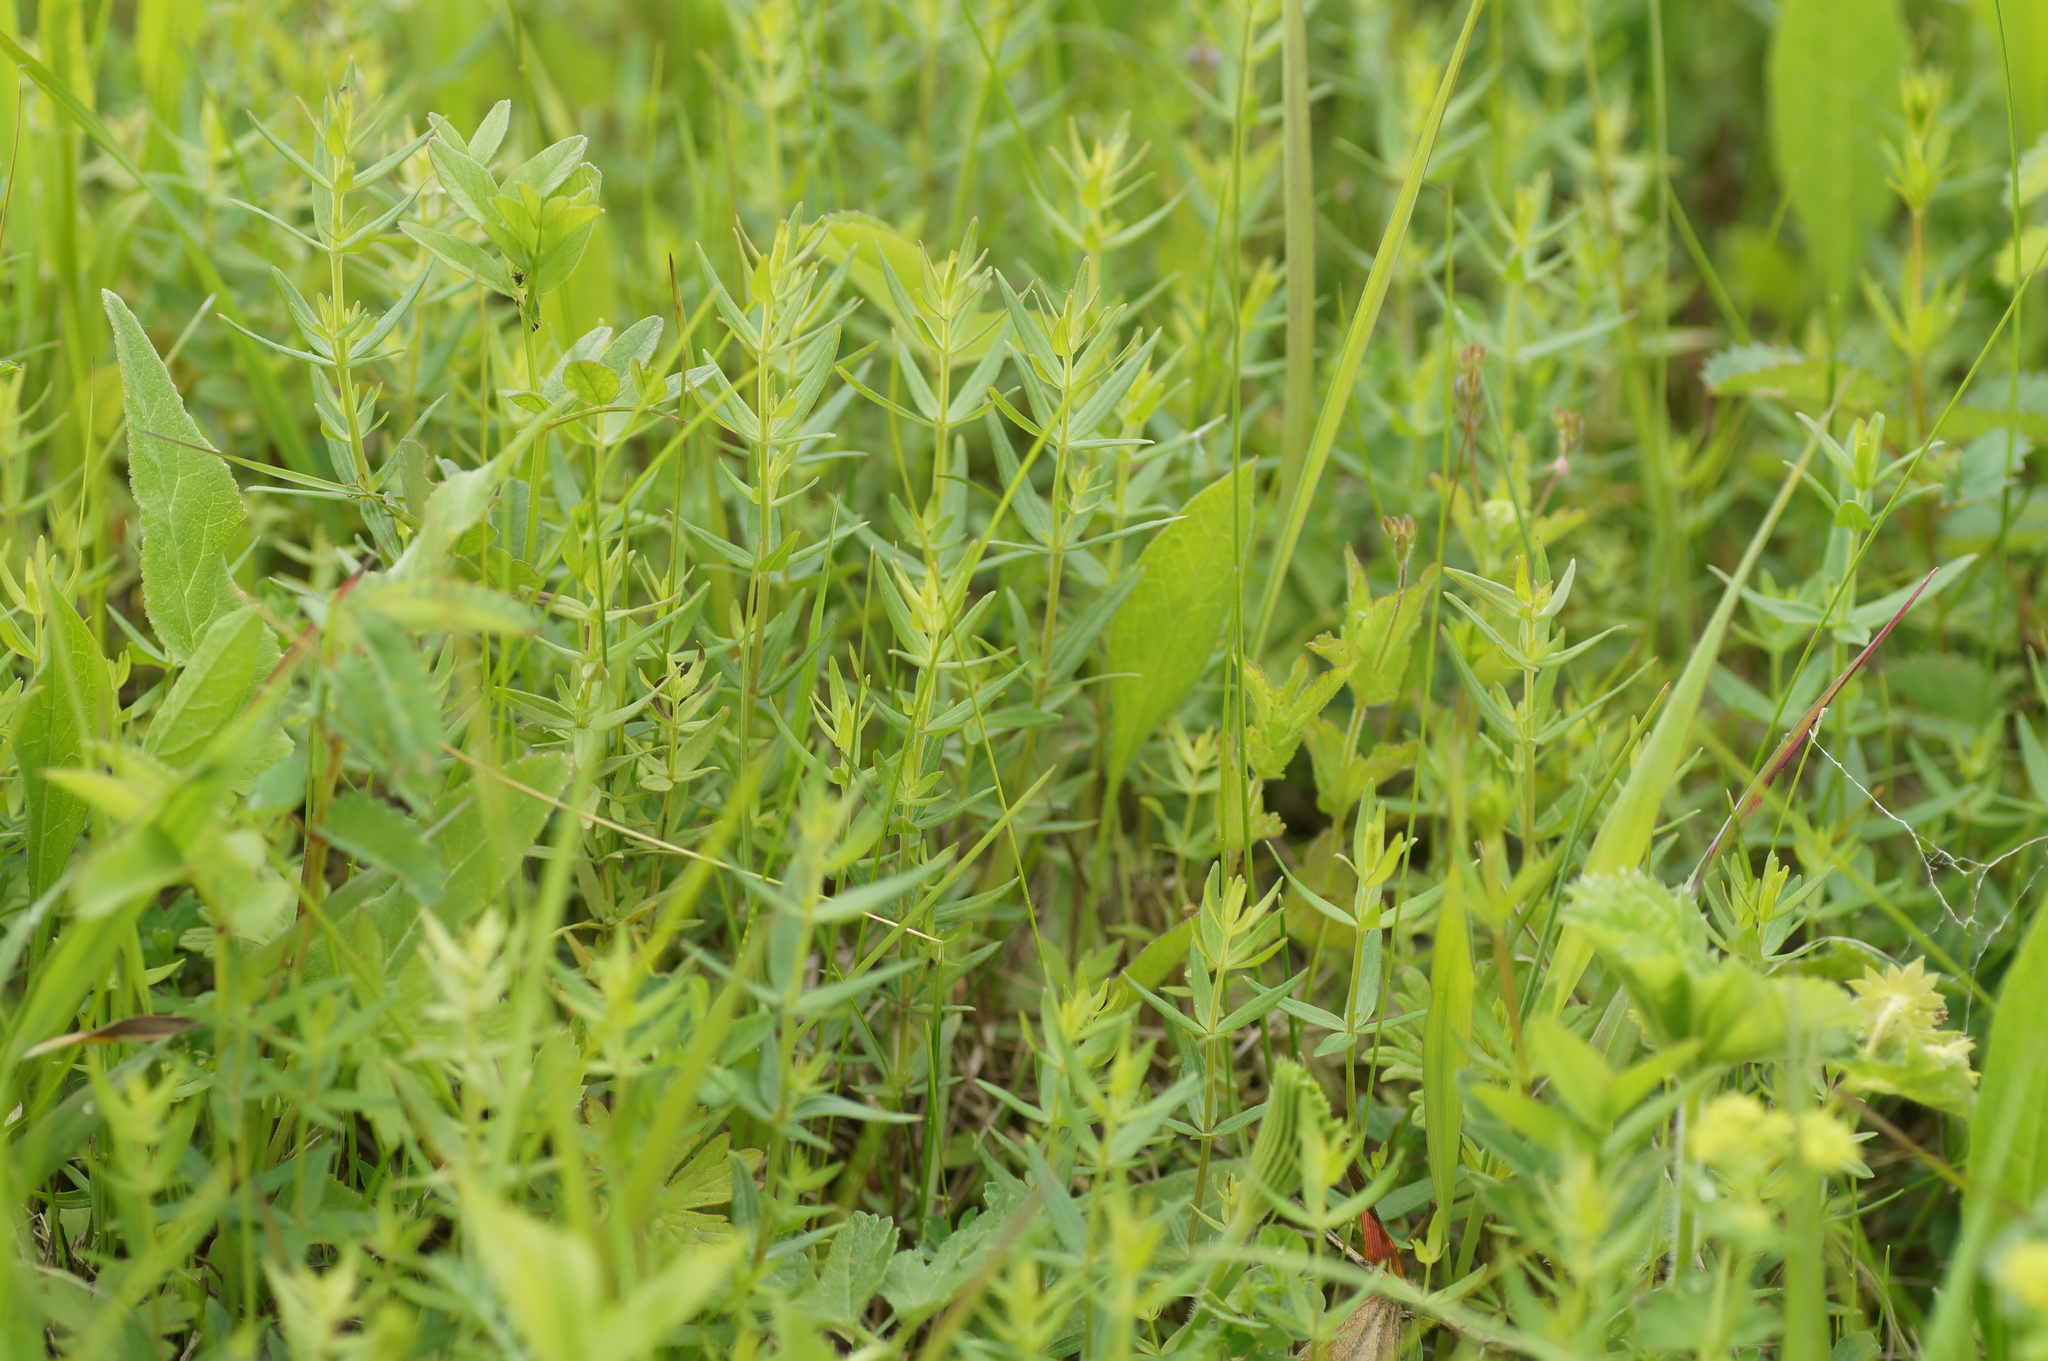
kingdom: Plantae
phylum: Tracheophyta
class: Magnoliopsida
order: Gentianales
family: Rubiaceae
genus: Galium
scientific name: Galium boreale
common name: Northern bedstraw
